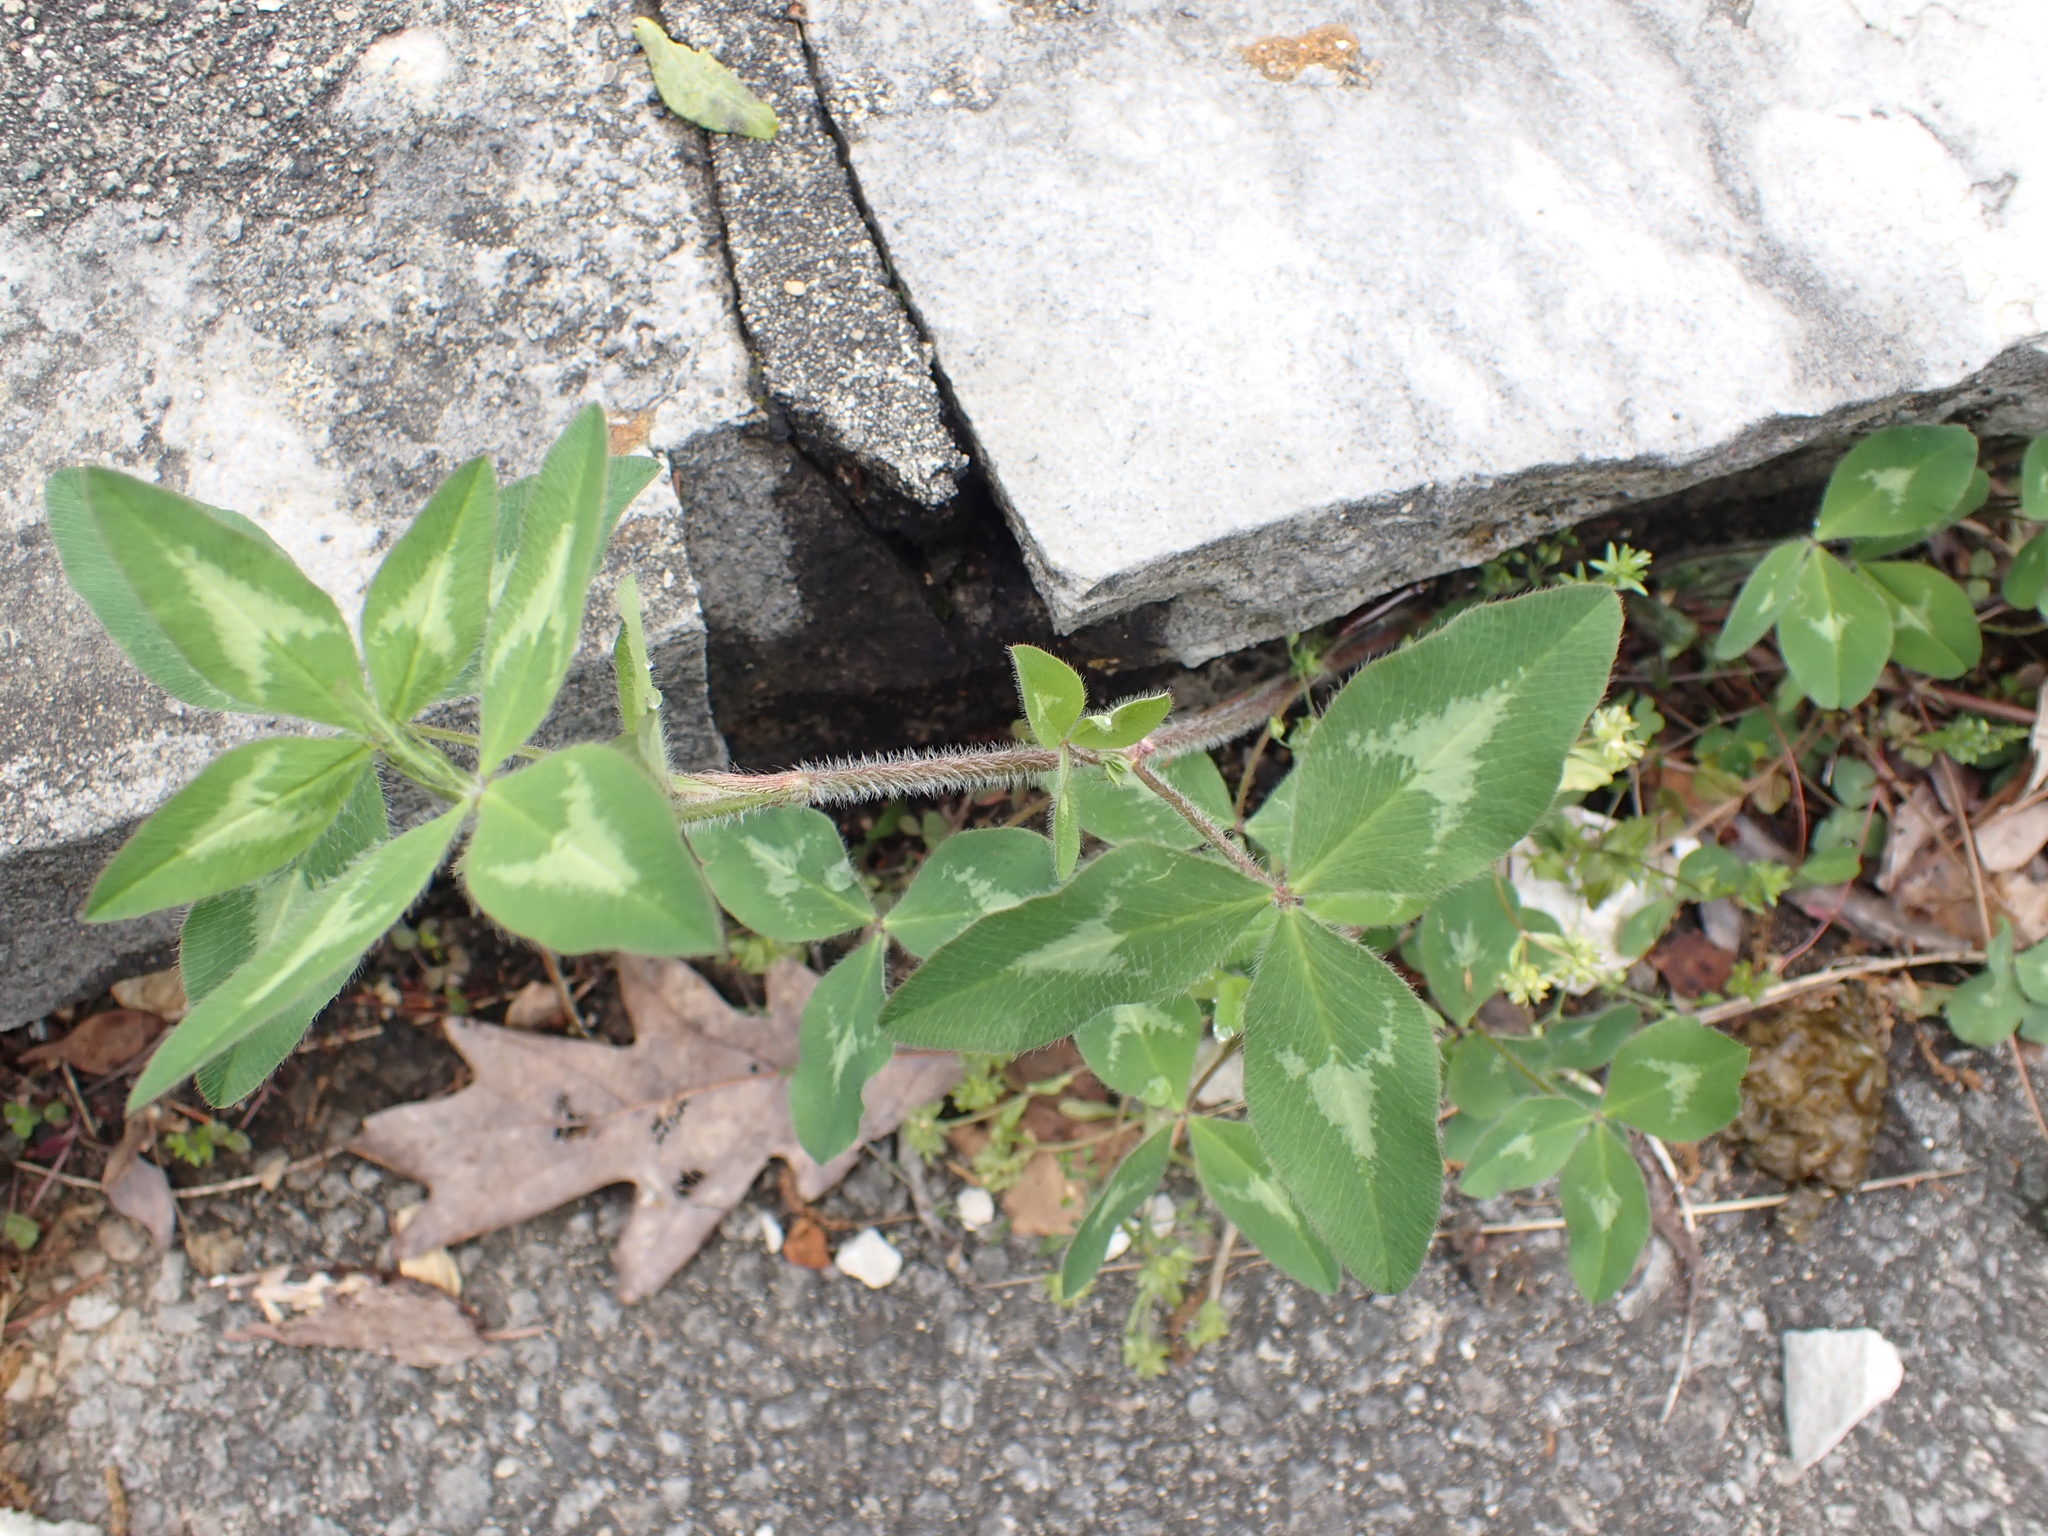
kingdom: Plantae
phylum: Tracheophyta
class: Magnoliopsida
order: Fabales
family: Fabaceae
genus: Trifolium
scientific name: Trifolium pratense
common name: Red clover
